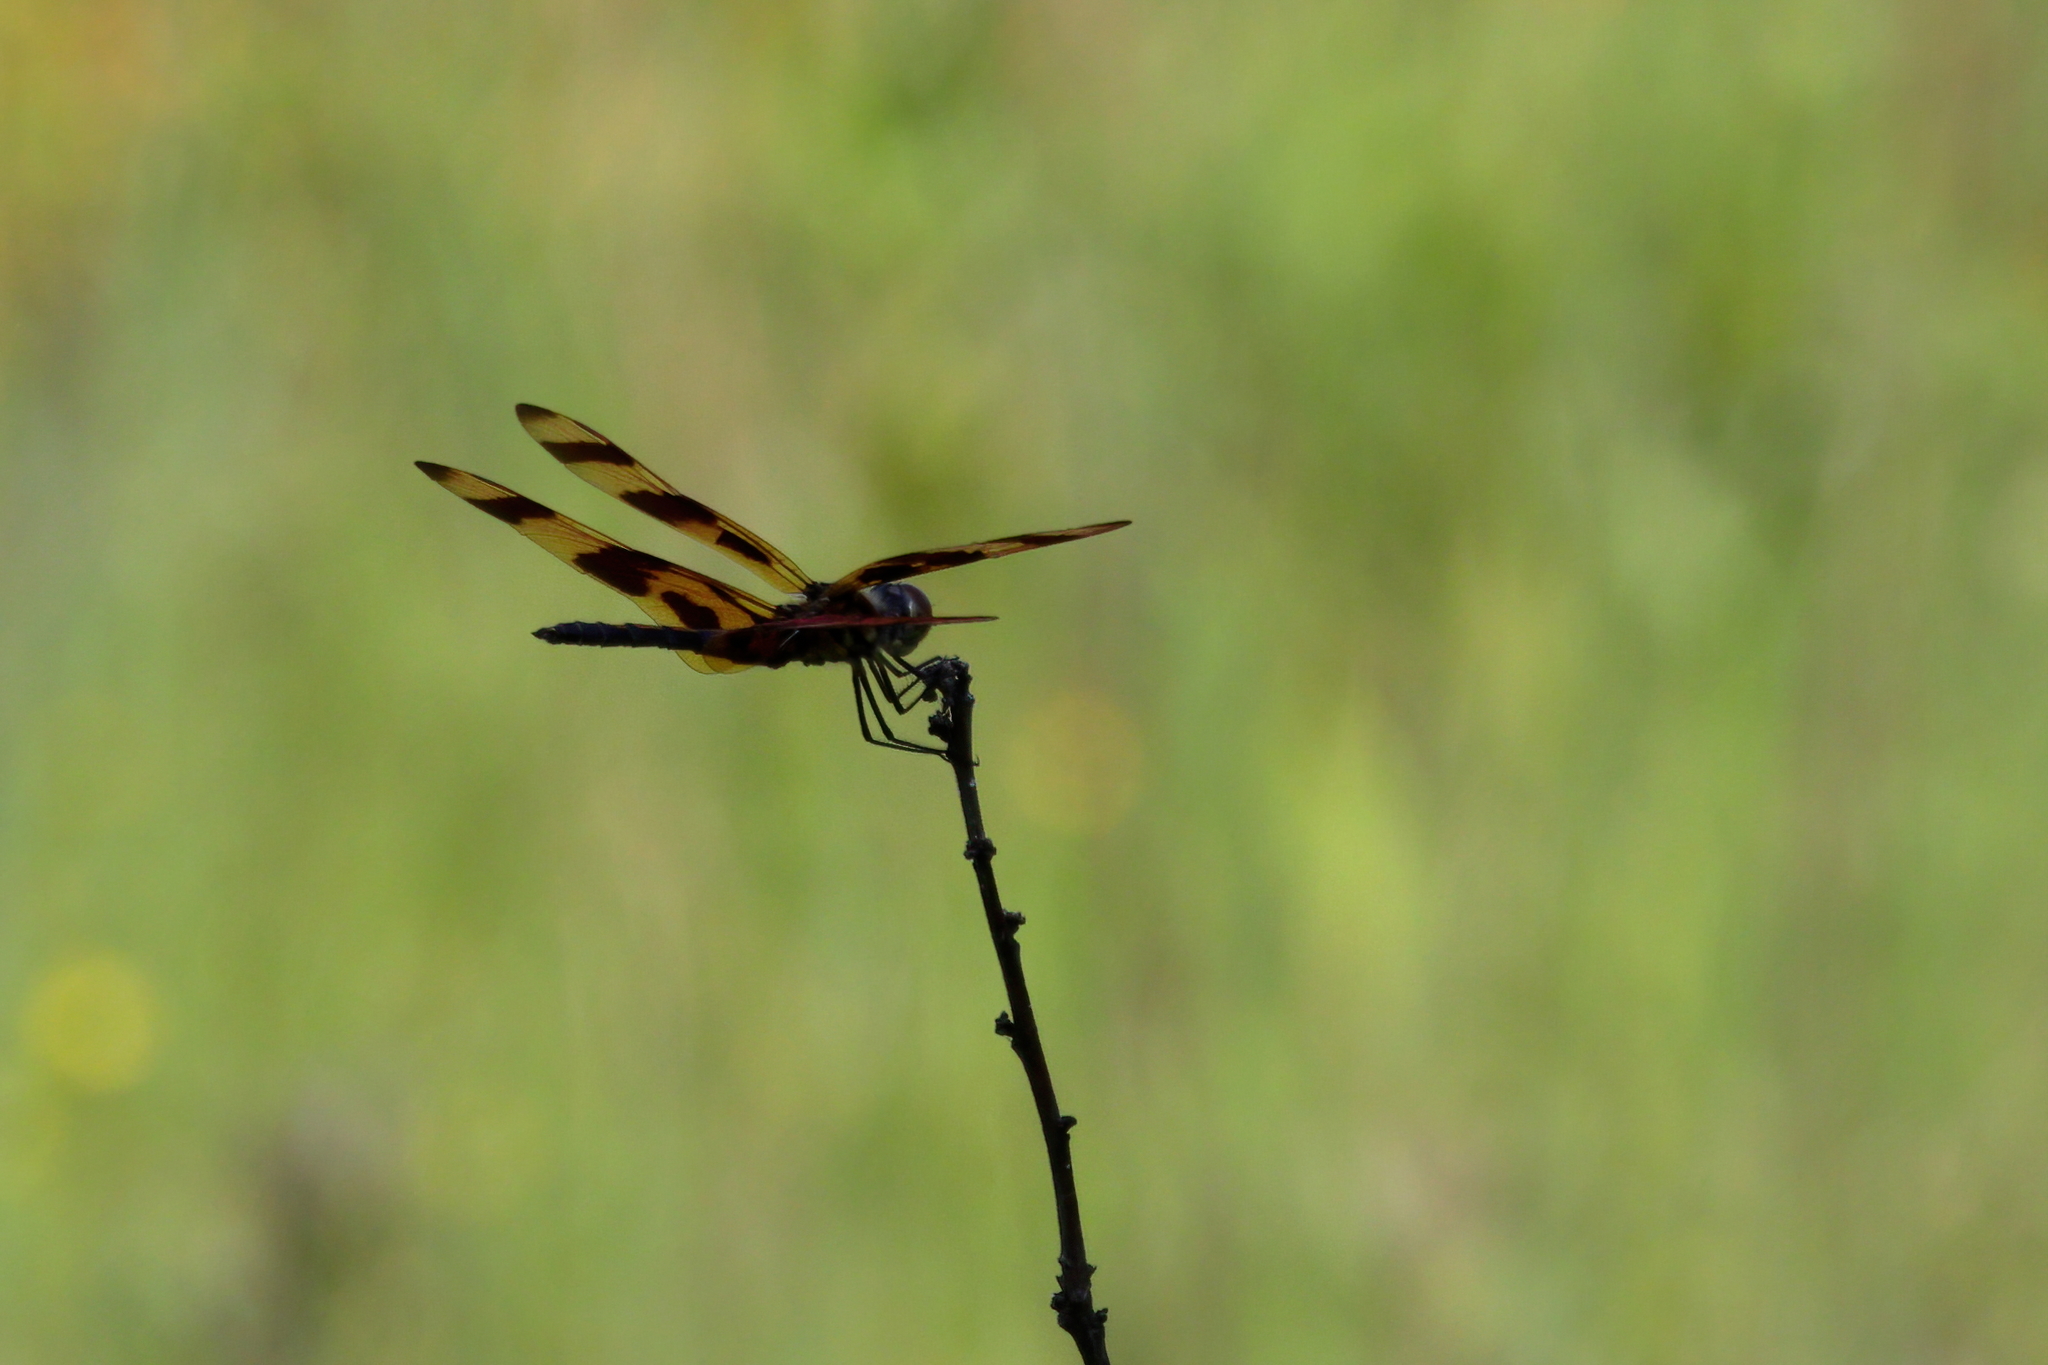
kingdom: Animalia
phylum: Arthropoda
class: Insecta
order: Odonata
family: Libellulidae
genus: Celithemis
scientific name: Celithemis eponina
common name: Halloween pennant
